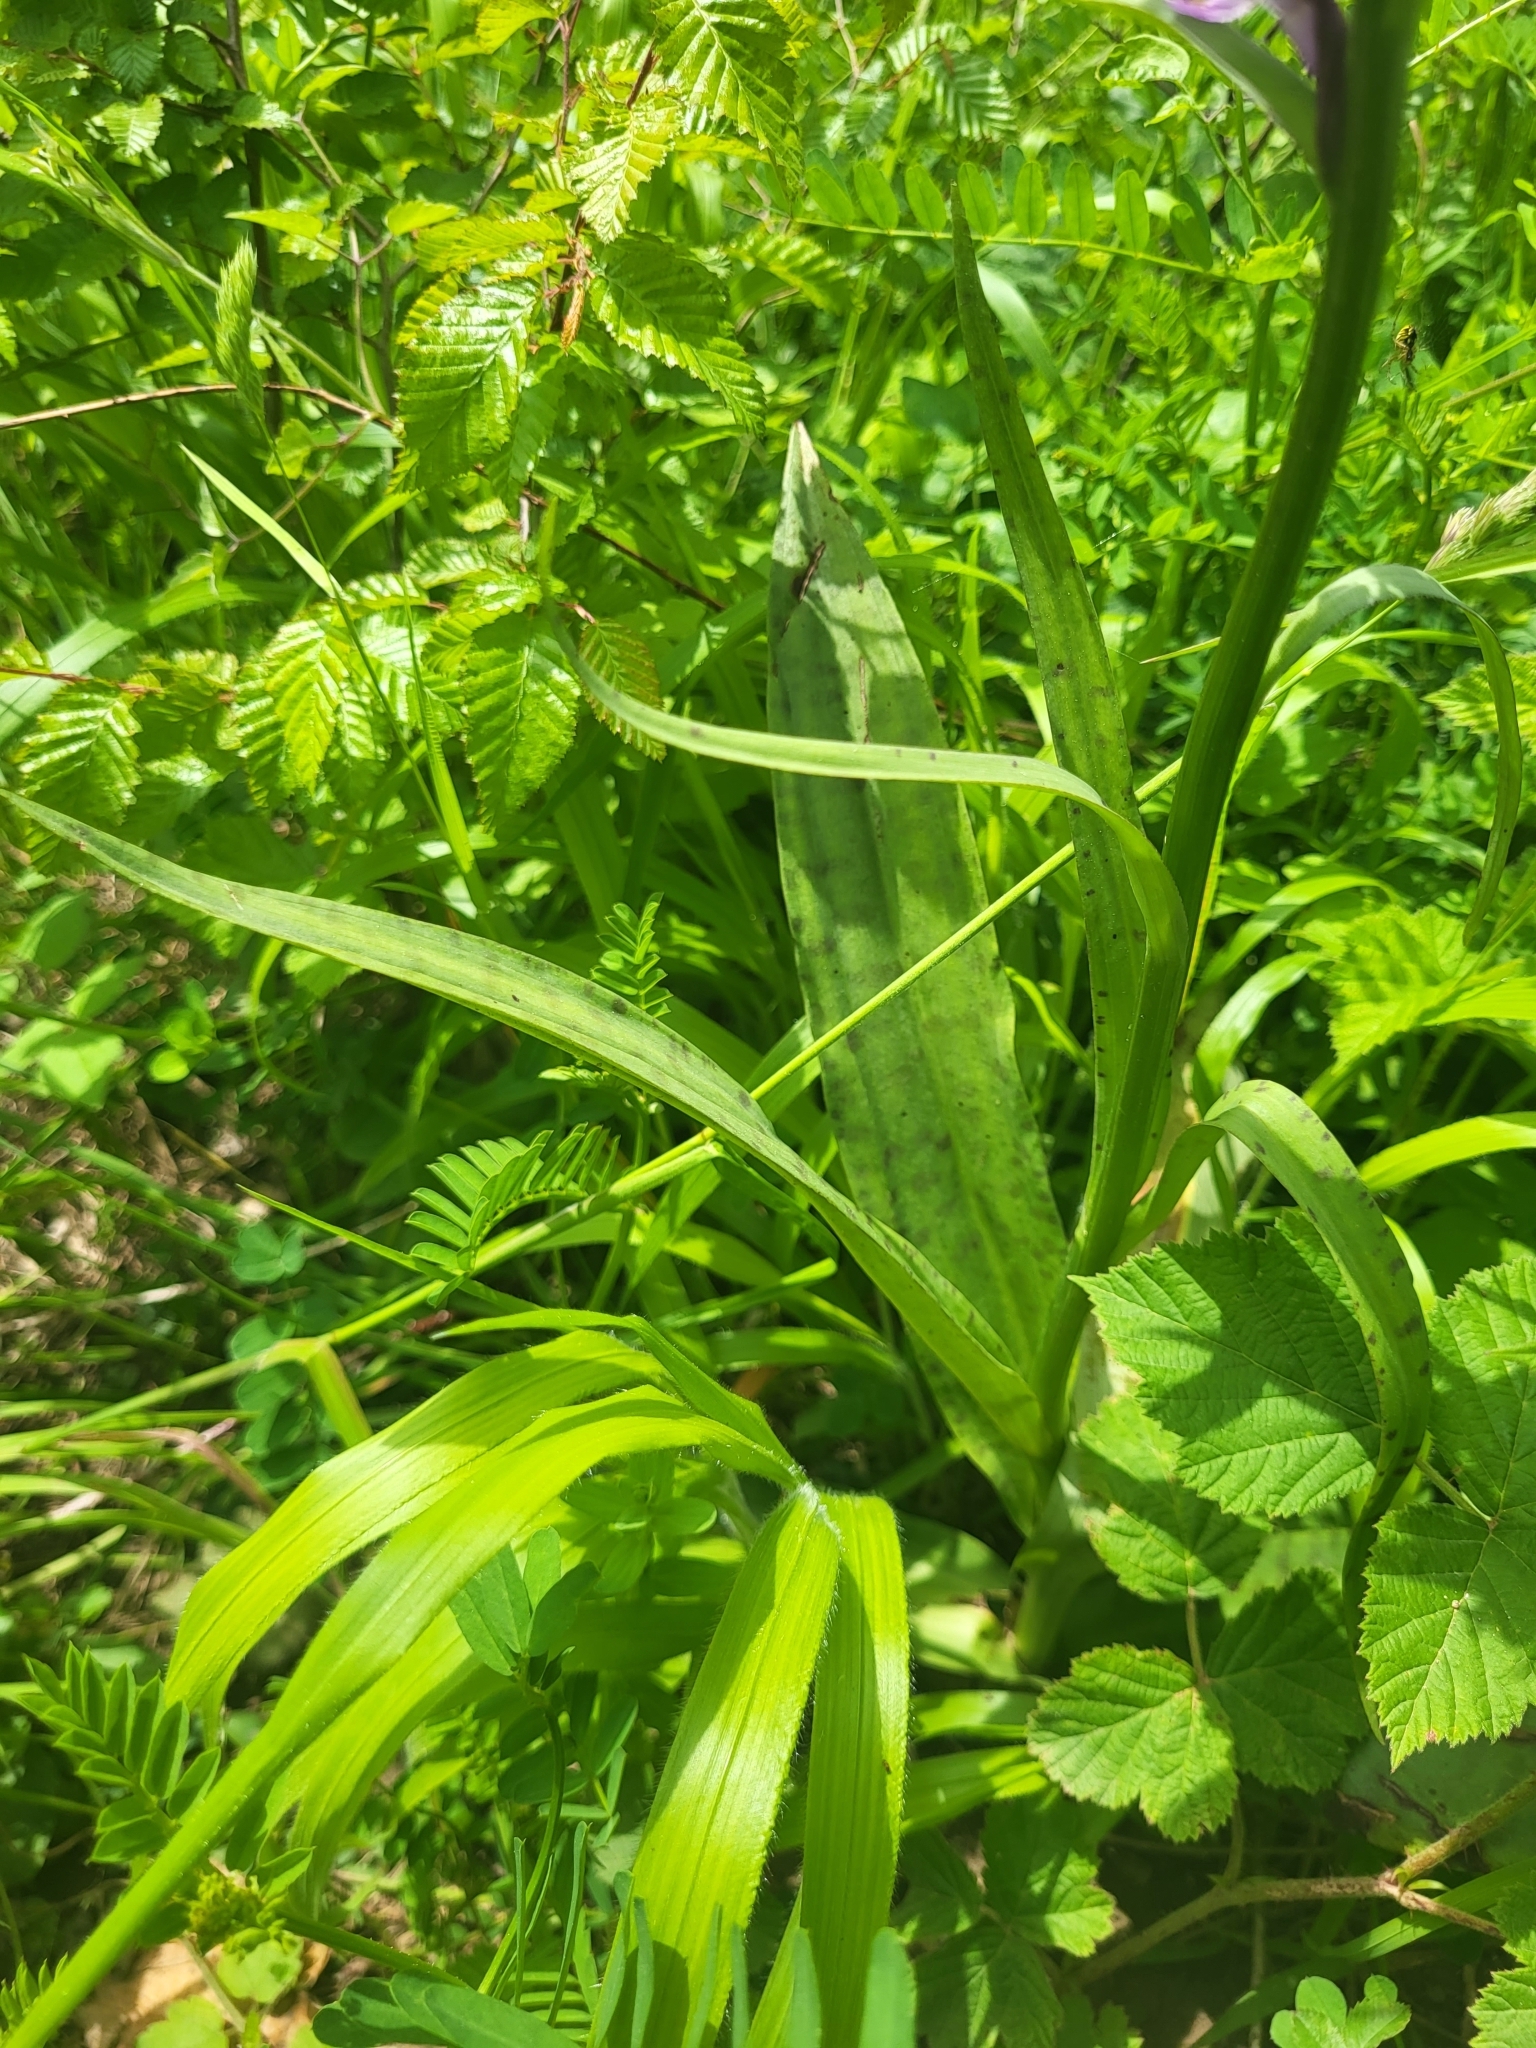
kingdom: Plantae
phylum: Tracheophyta
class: Liliopsida
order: Asparagales
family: Orchidaceae
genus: Dactylorhiza
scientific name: Dactylorhiza maculata
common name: Heath spotted-orchid
